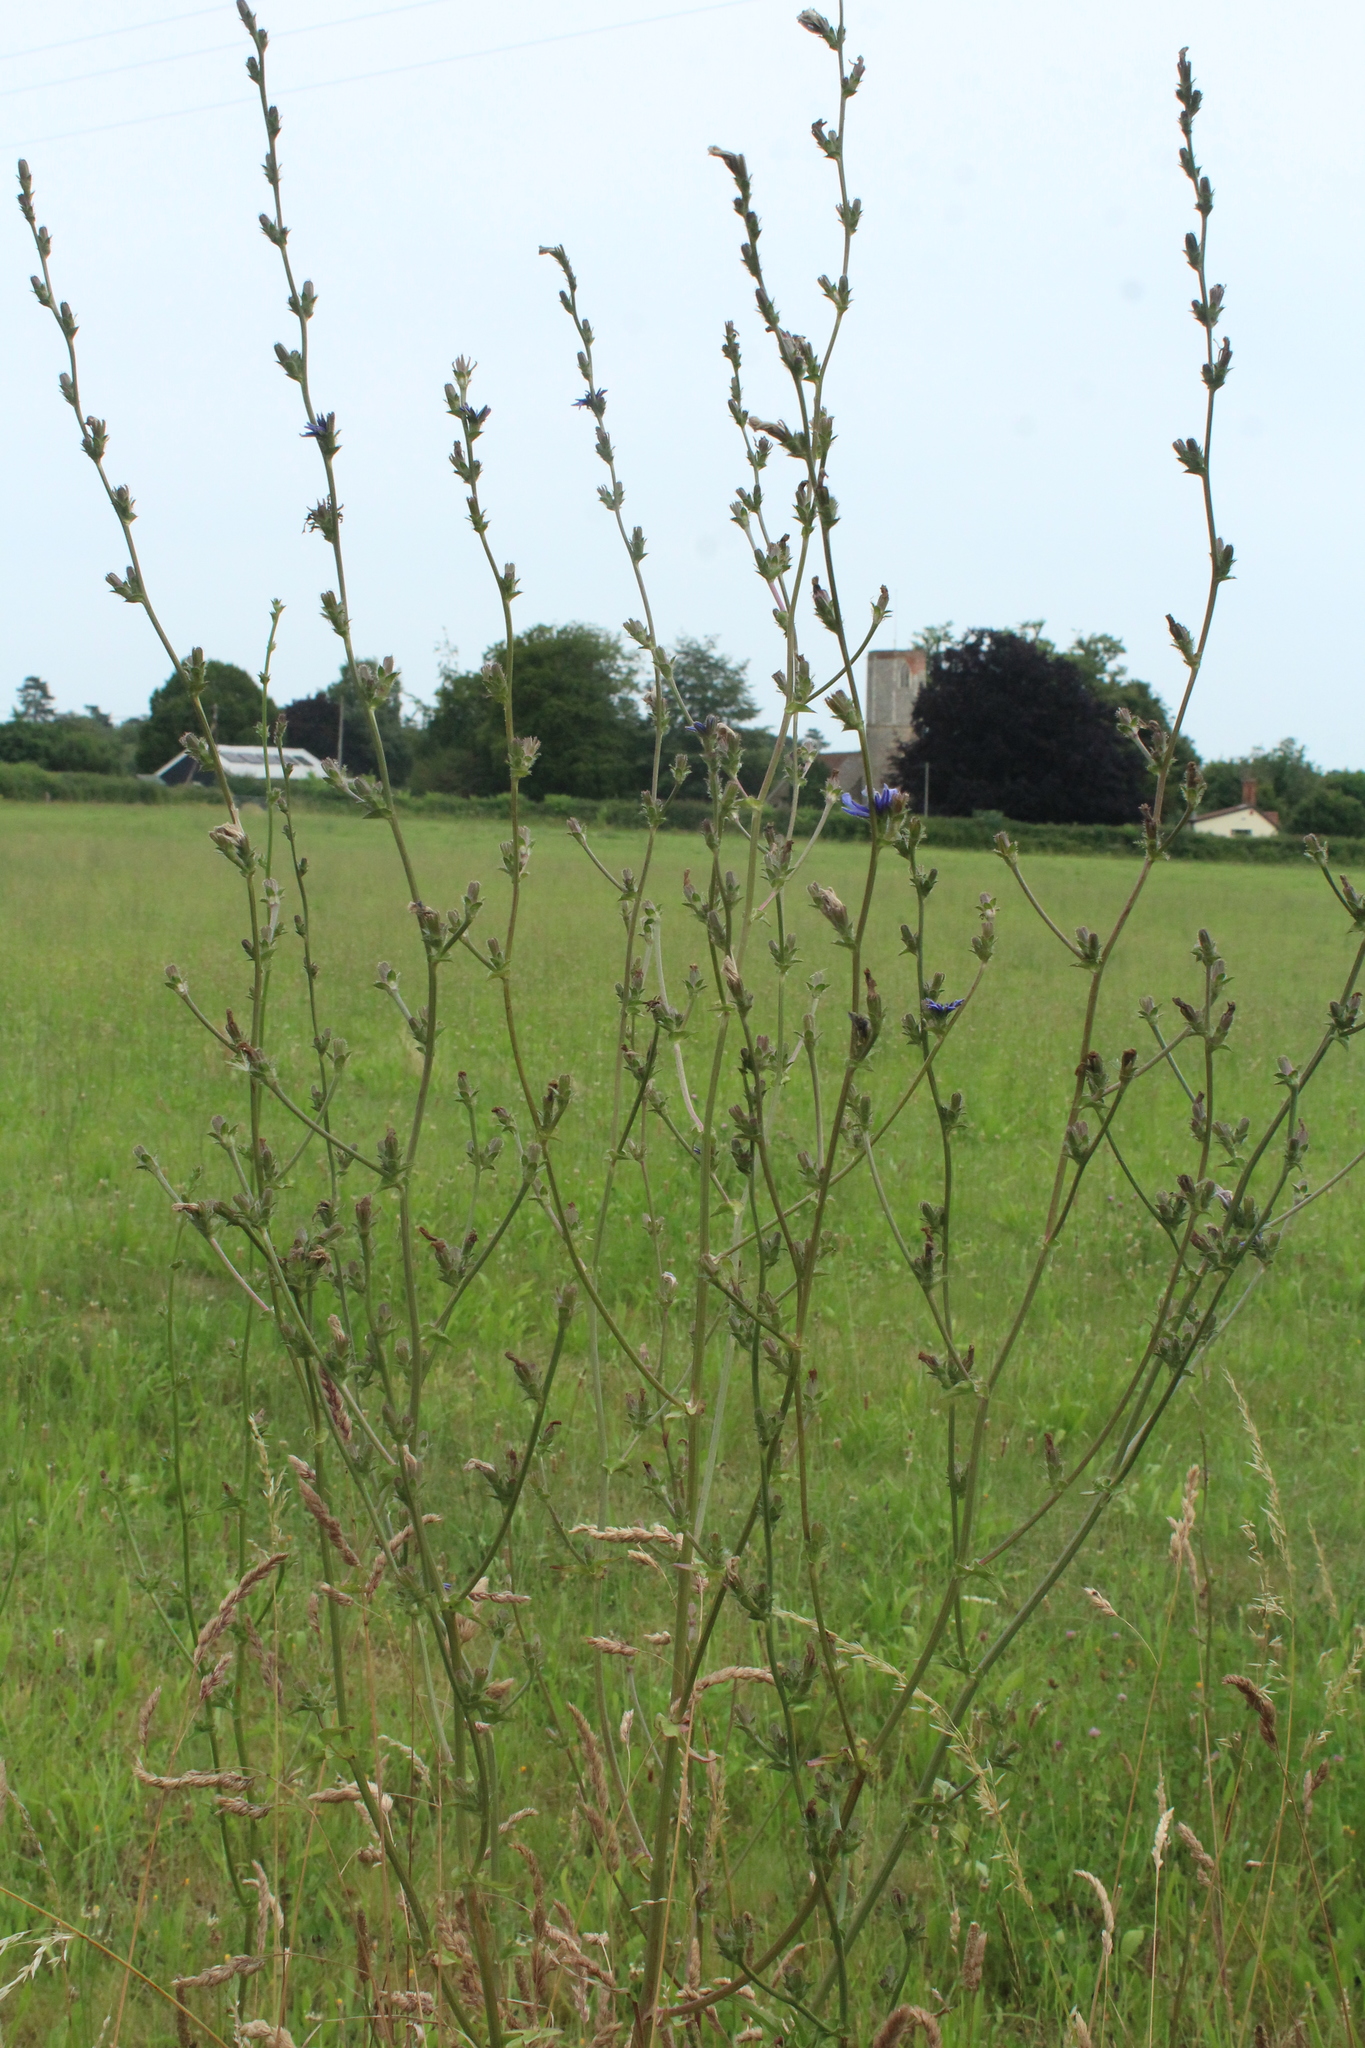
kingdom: Plantae
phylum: Tracheophyta
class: Magnoliopsida
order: Asterales
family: Asteraceae
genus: Cichorium
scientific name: Cichorium intybus
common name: Chicory
